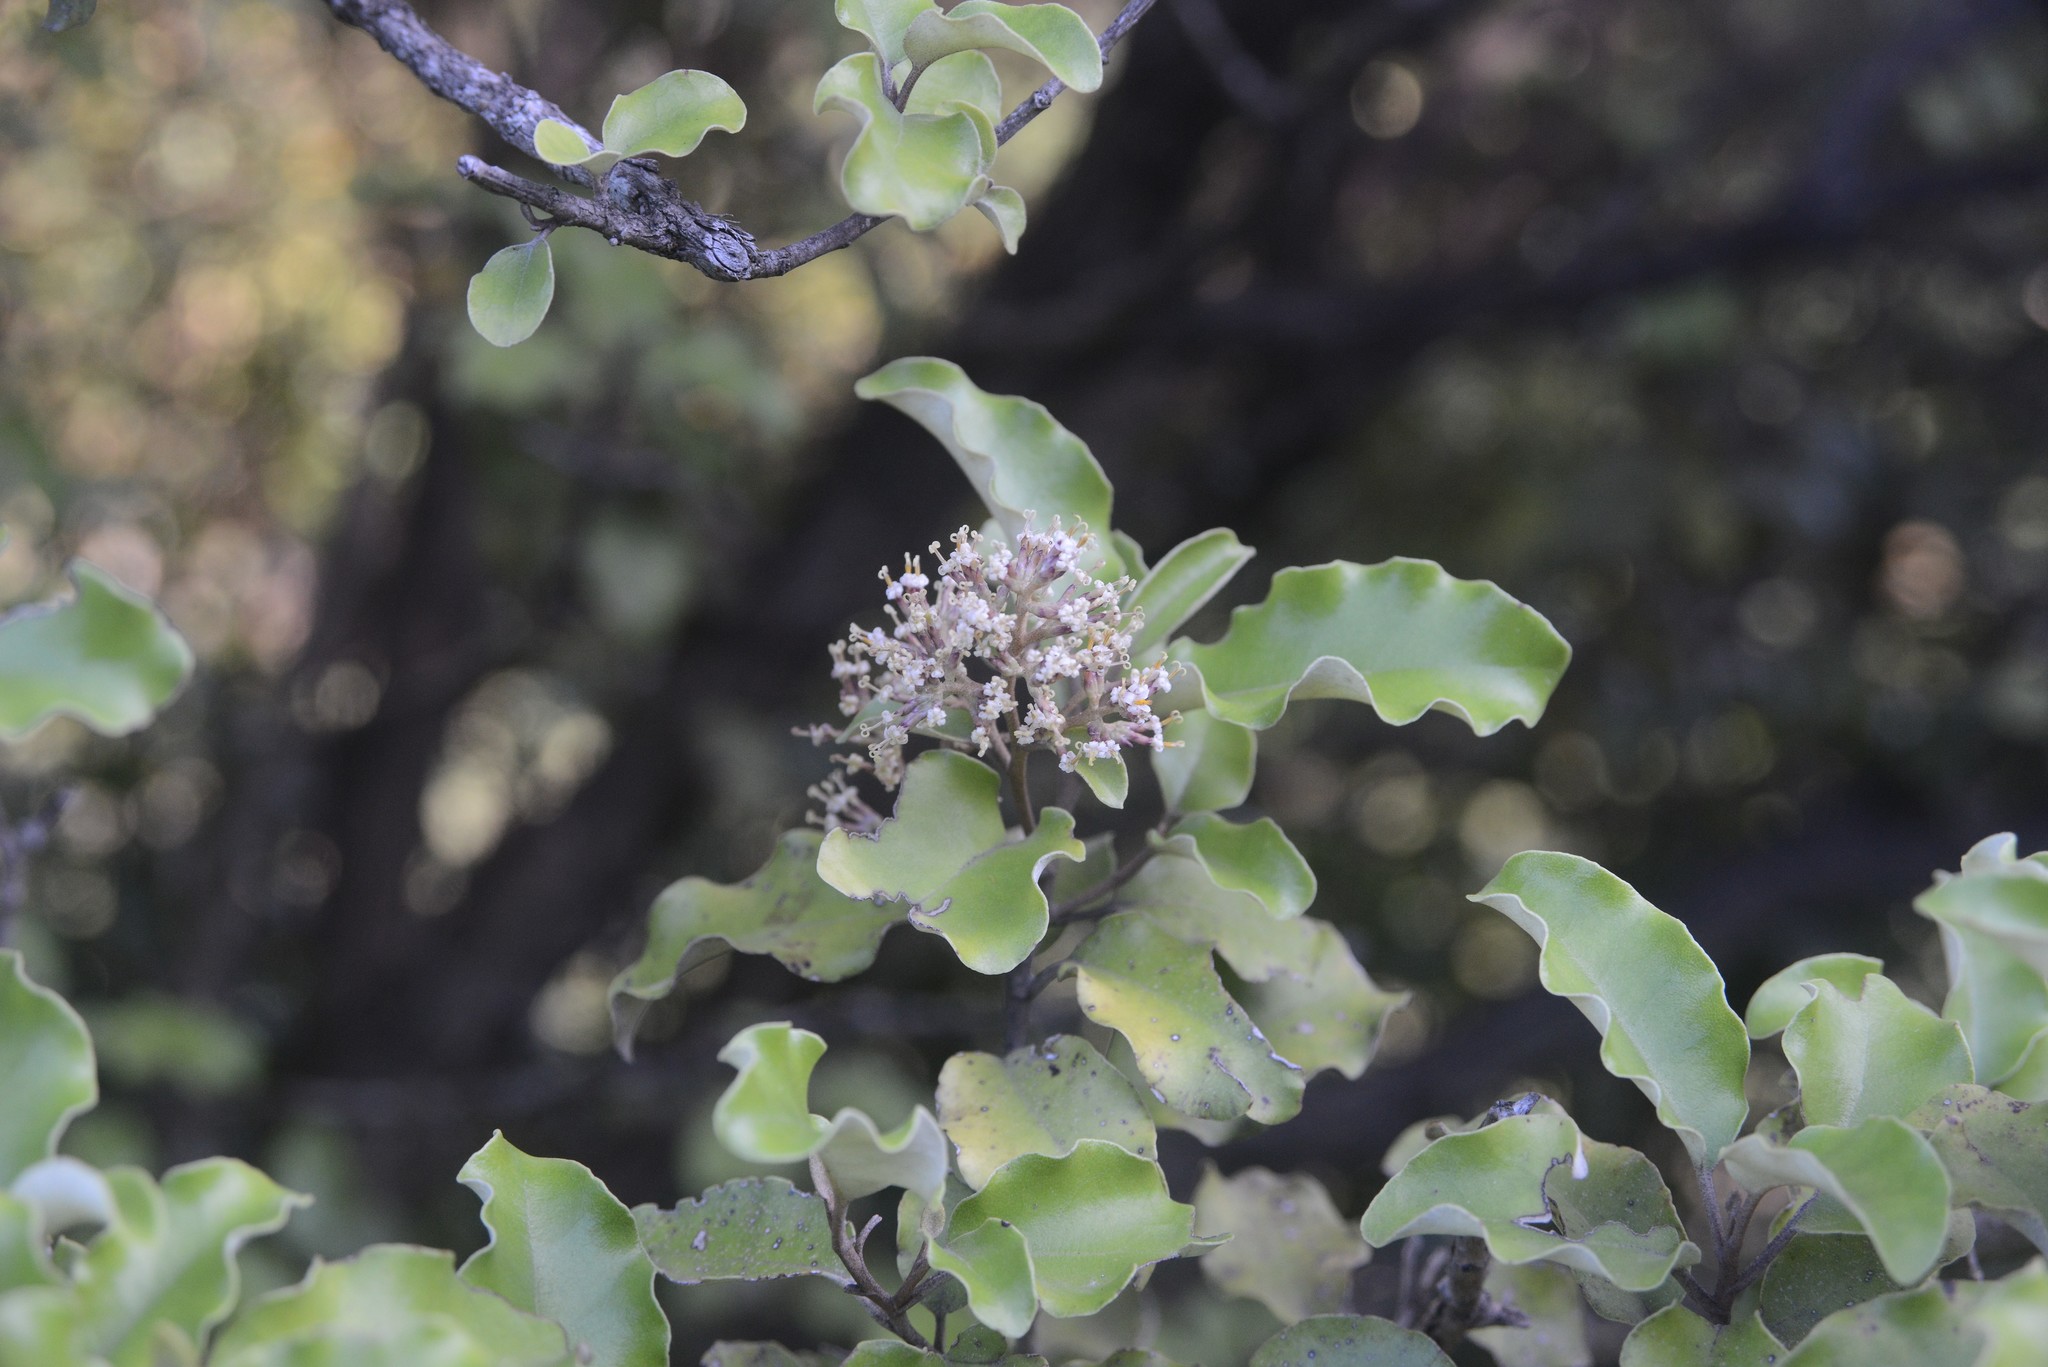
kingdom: Plantae
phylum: Tracheophyta
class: Magnoliopsida
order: Asterales
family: Asteraceae
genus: Olearia
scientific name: Olearia paniculata
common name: Akiraho
